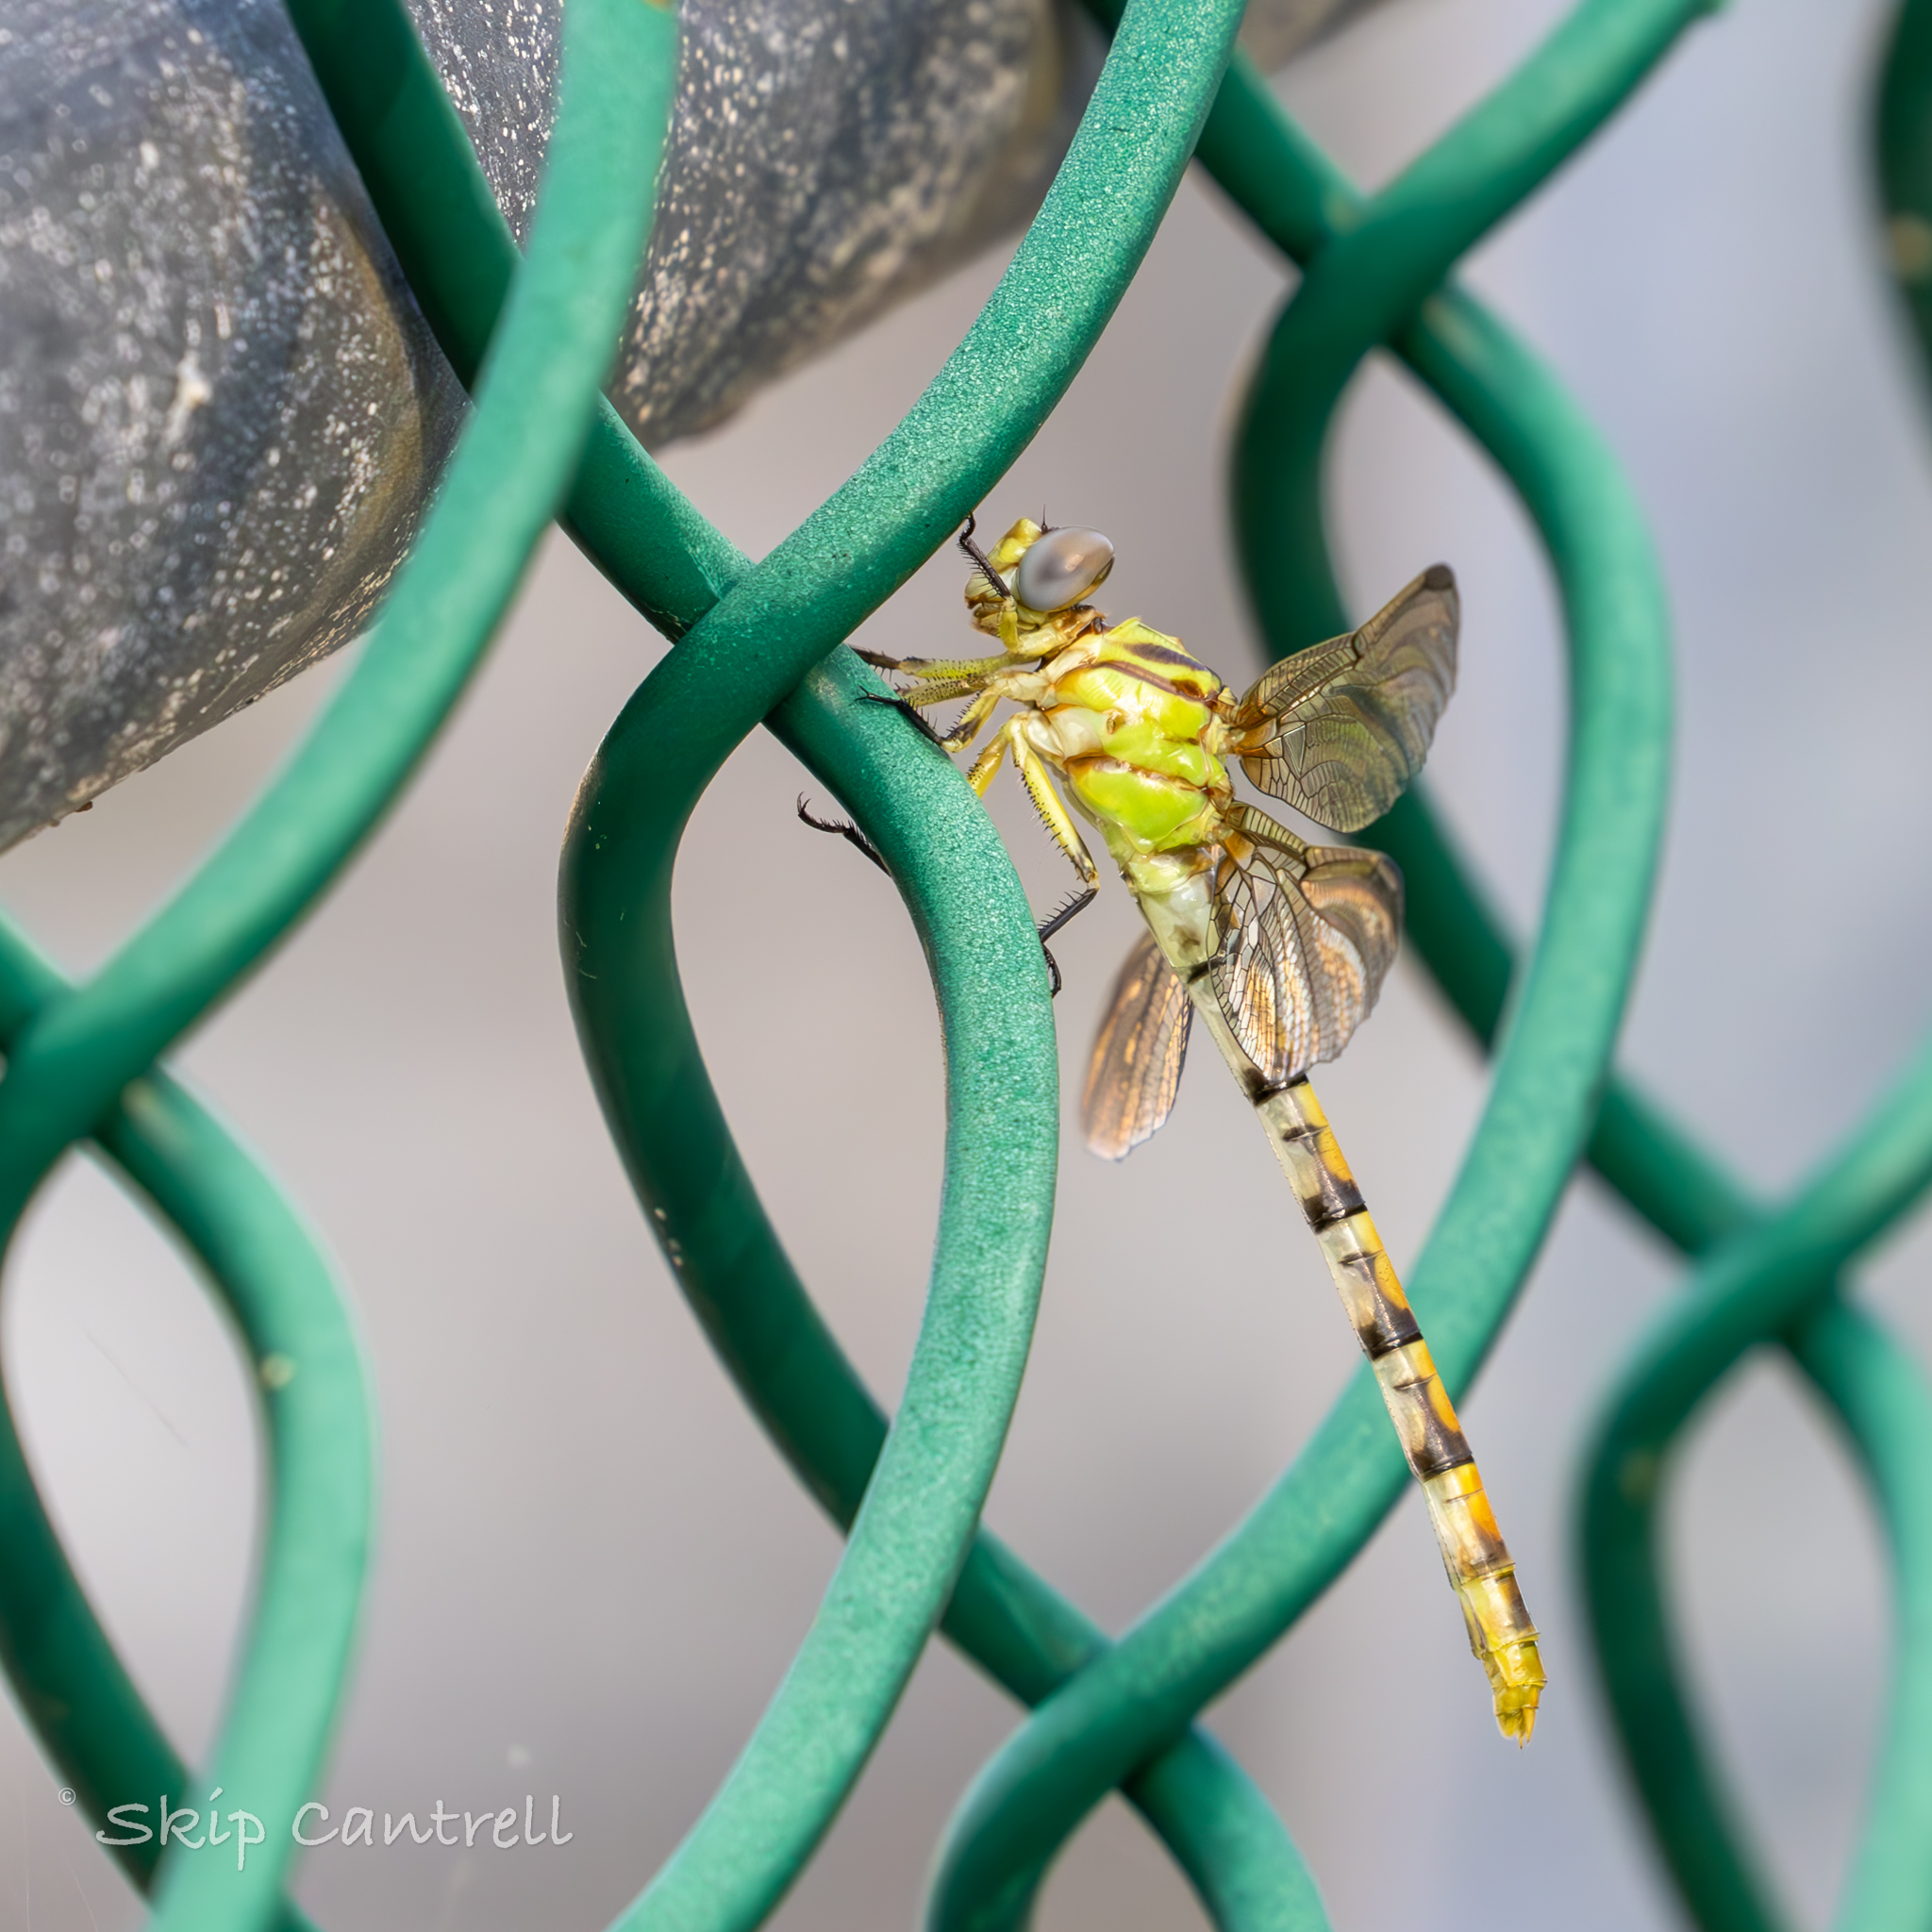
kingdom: Animalia
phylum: Arthropoda
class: Insecta
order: Odonata
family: Gomphidae
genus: Erpetogomphus
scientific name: Erpetogomphus designatus
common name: Eastern ringtail
